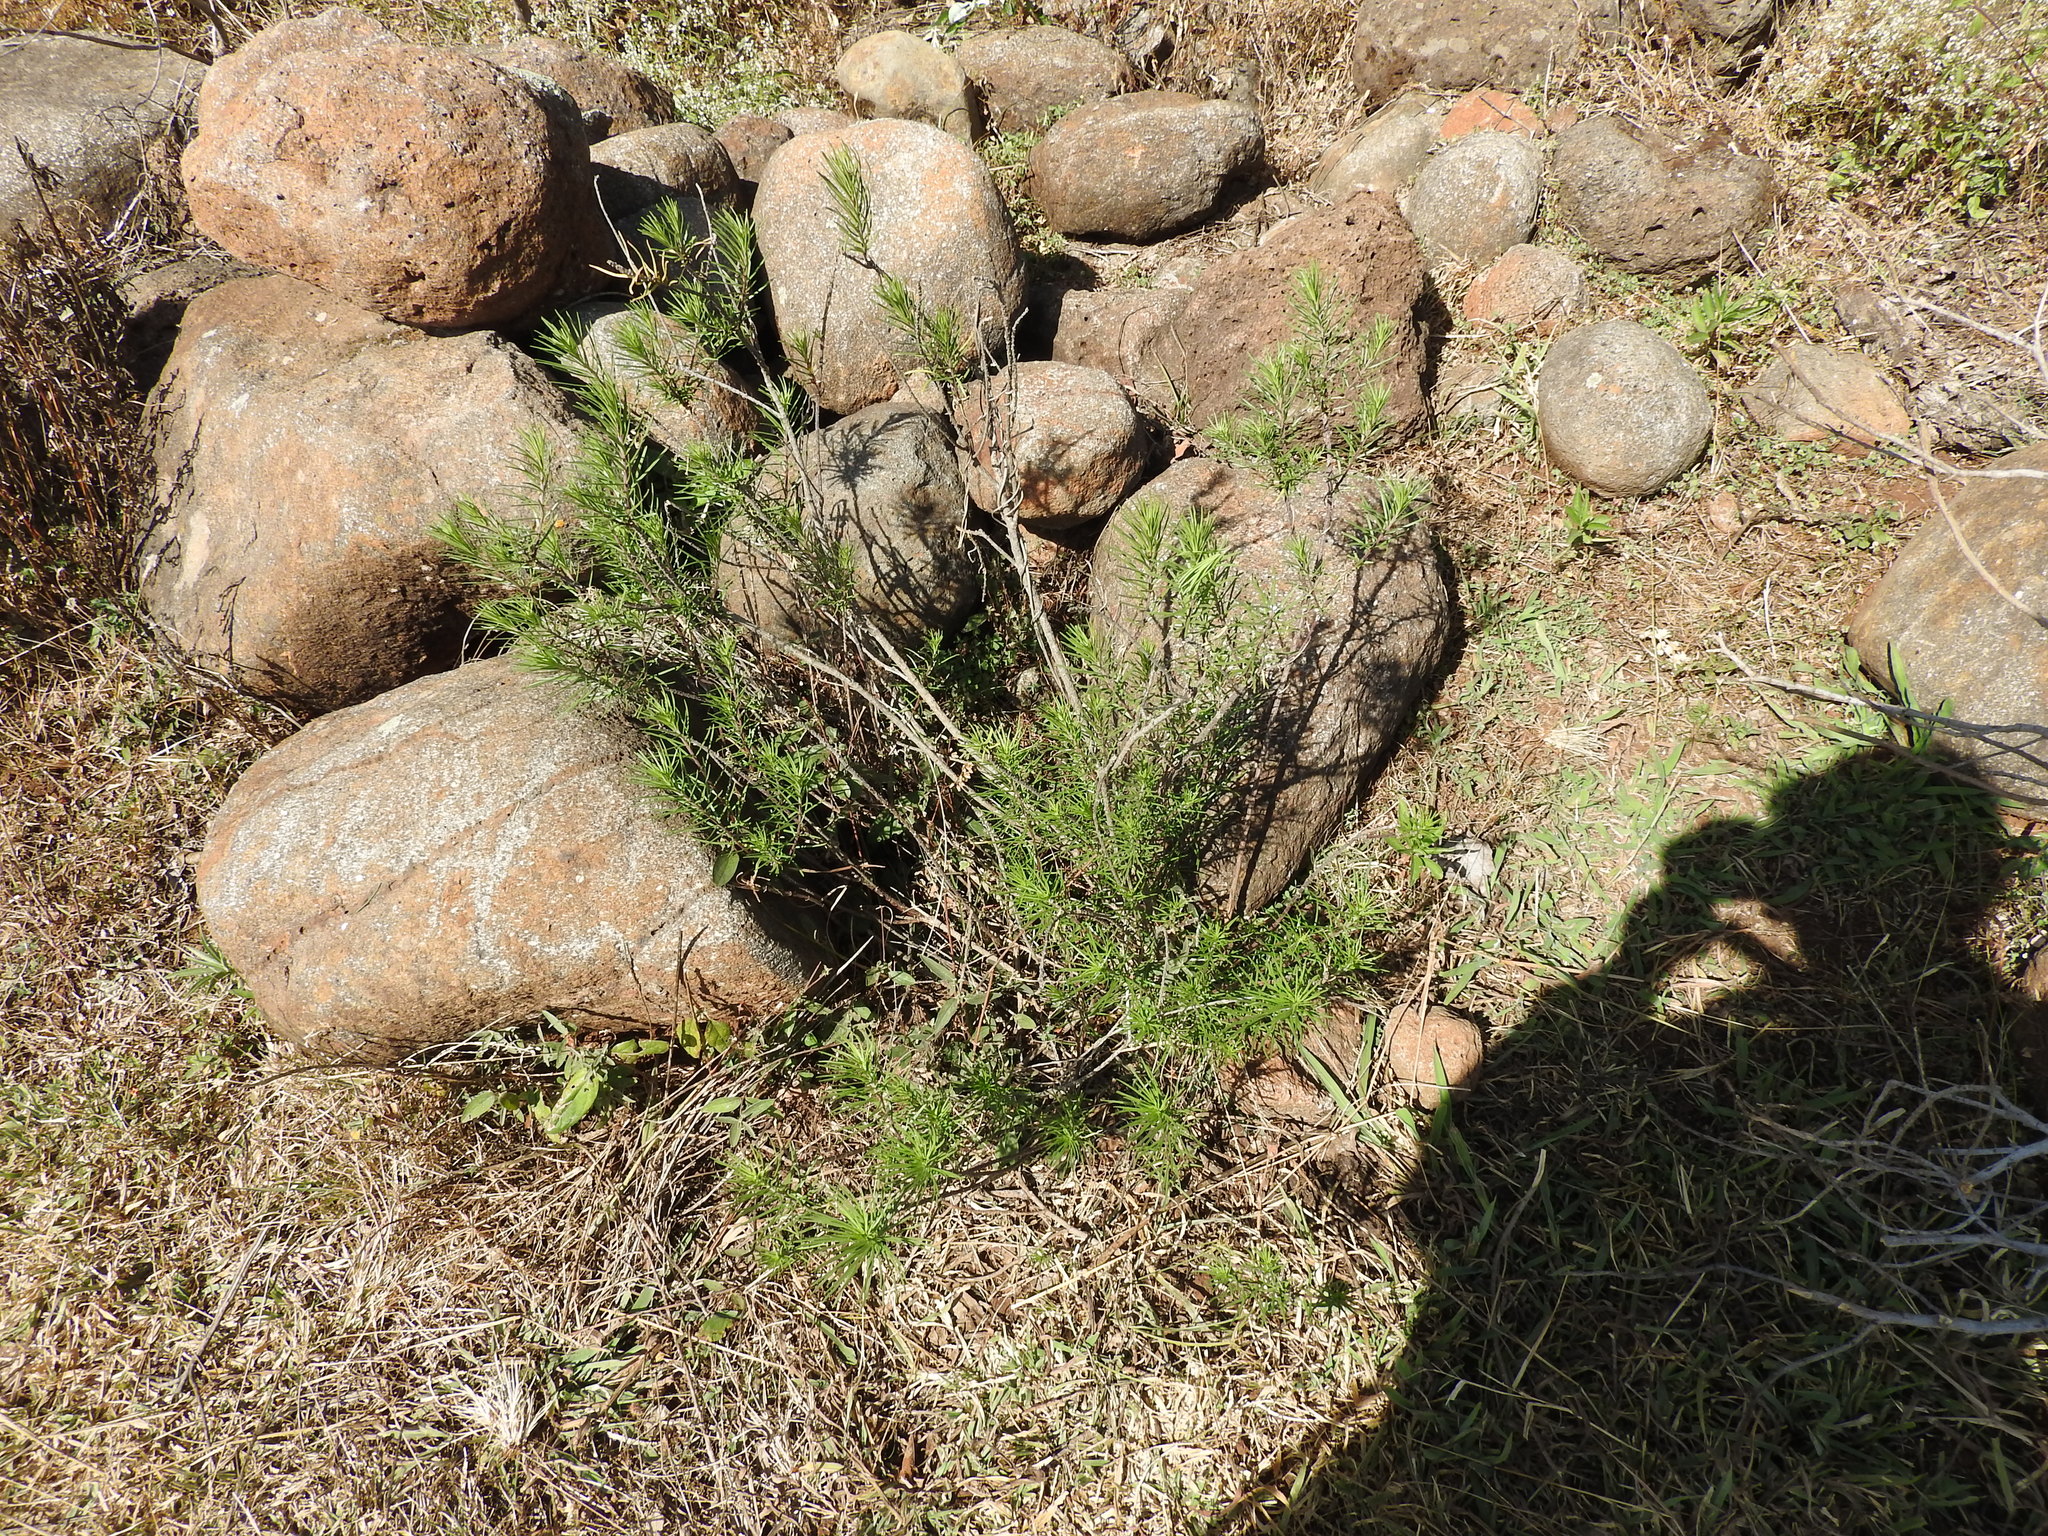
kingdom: Plantae
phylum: Tracheophyta
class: Magnoliopsida
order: Gentianales
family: Apocynaceae
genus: Asclepias
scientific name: Asclepias linaria
